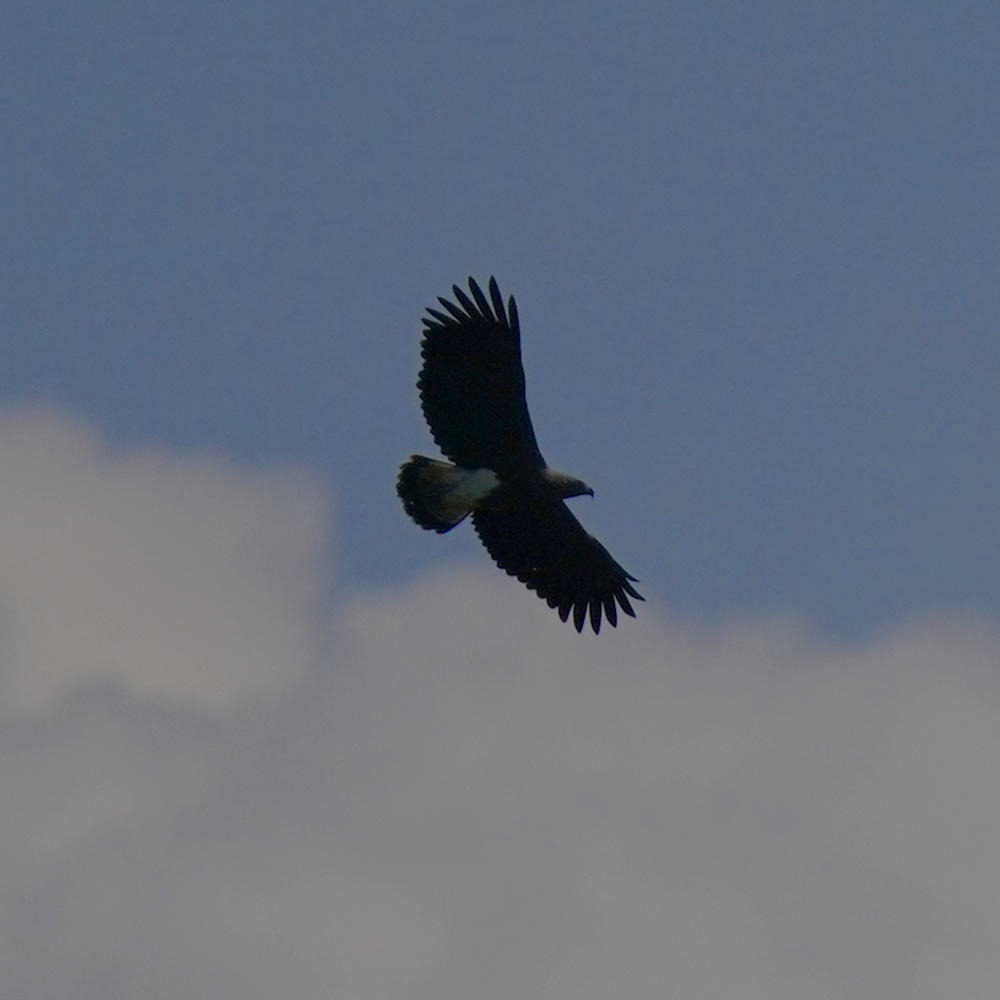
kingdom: Animalia
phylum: Chordata
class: Aves
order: Accipitriformes
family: Accipitridae
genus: Icthyophaga
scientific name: Icthyophaga ichthyaetus
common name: Grey-headed fish eagle
